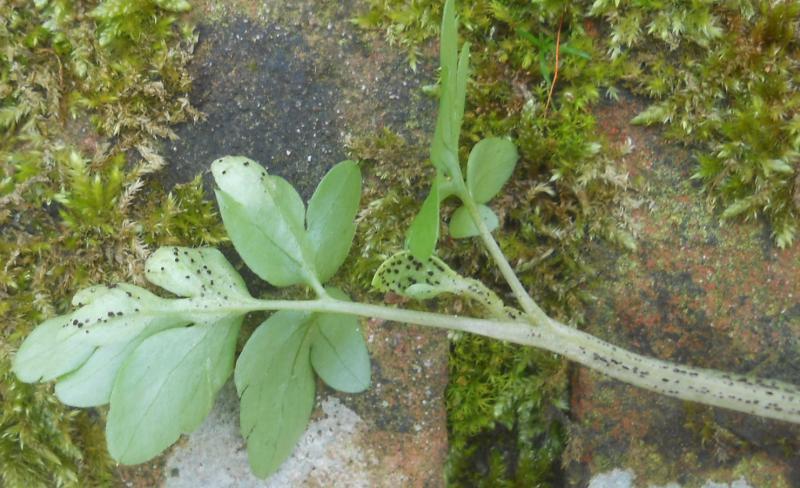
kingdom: Fungi
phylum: Basidiomycota
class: Pucciniomycetes
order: Pucciniales
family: Pucciniaceae
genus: Puccinia
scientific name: Puccinia adoxae
